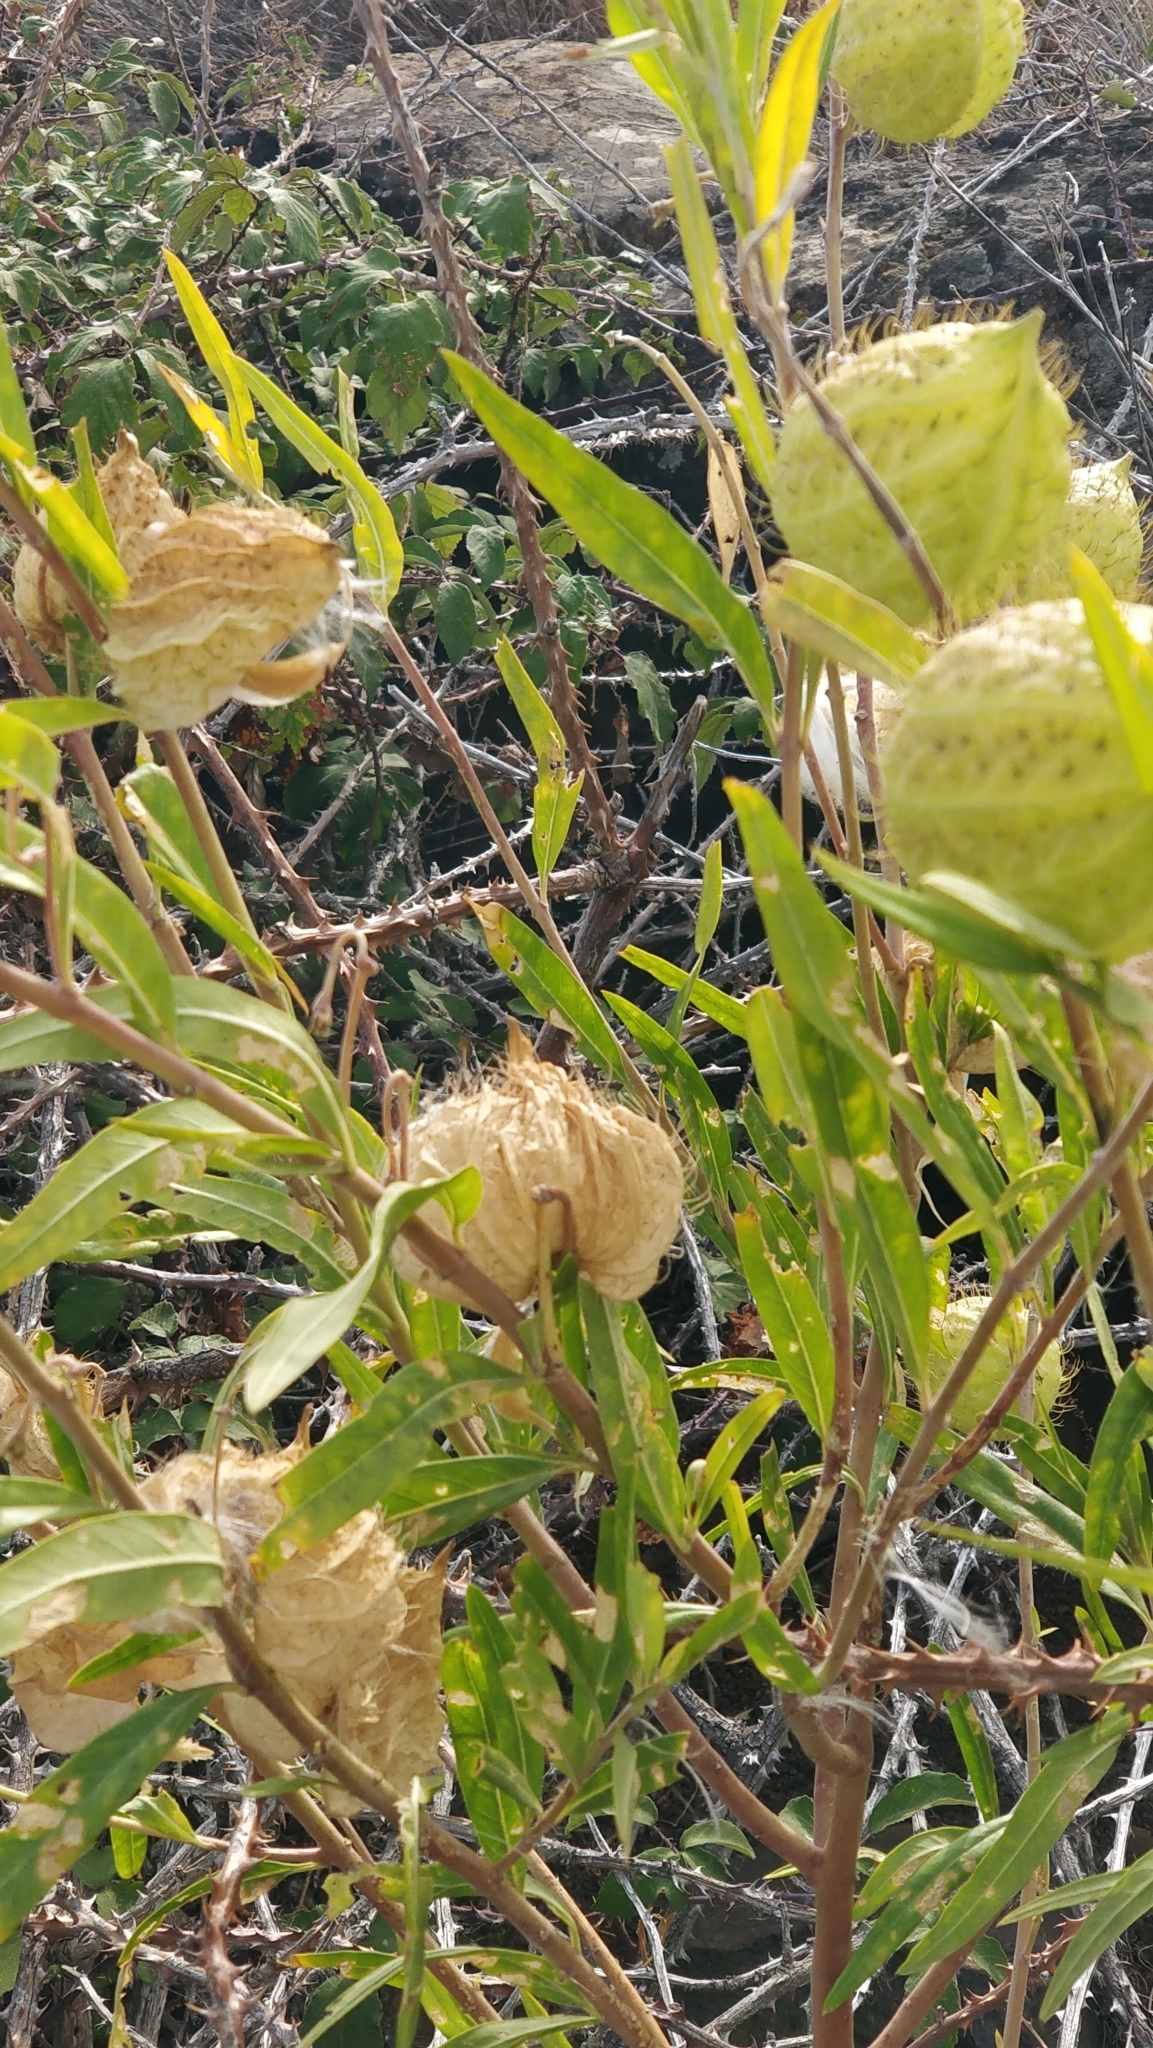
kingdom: Plantae
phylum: Tracheophyta
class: Magnoliopsida
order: Gentianales
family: Apocynaceae
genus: Gomphocarpus
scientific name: Gomphocarpus fruticosus
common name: Milkweed
